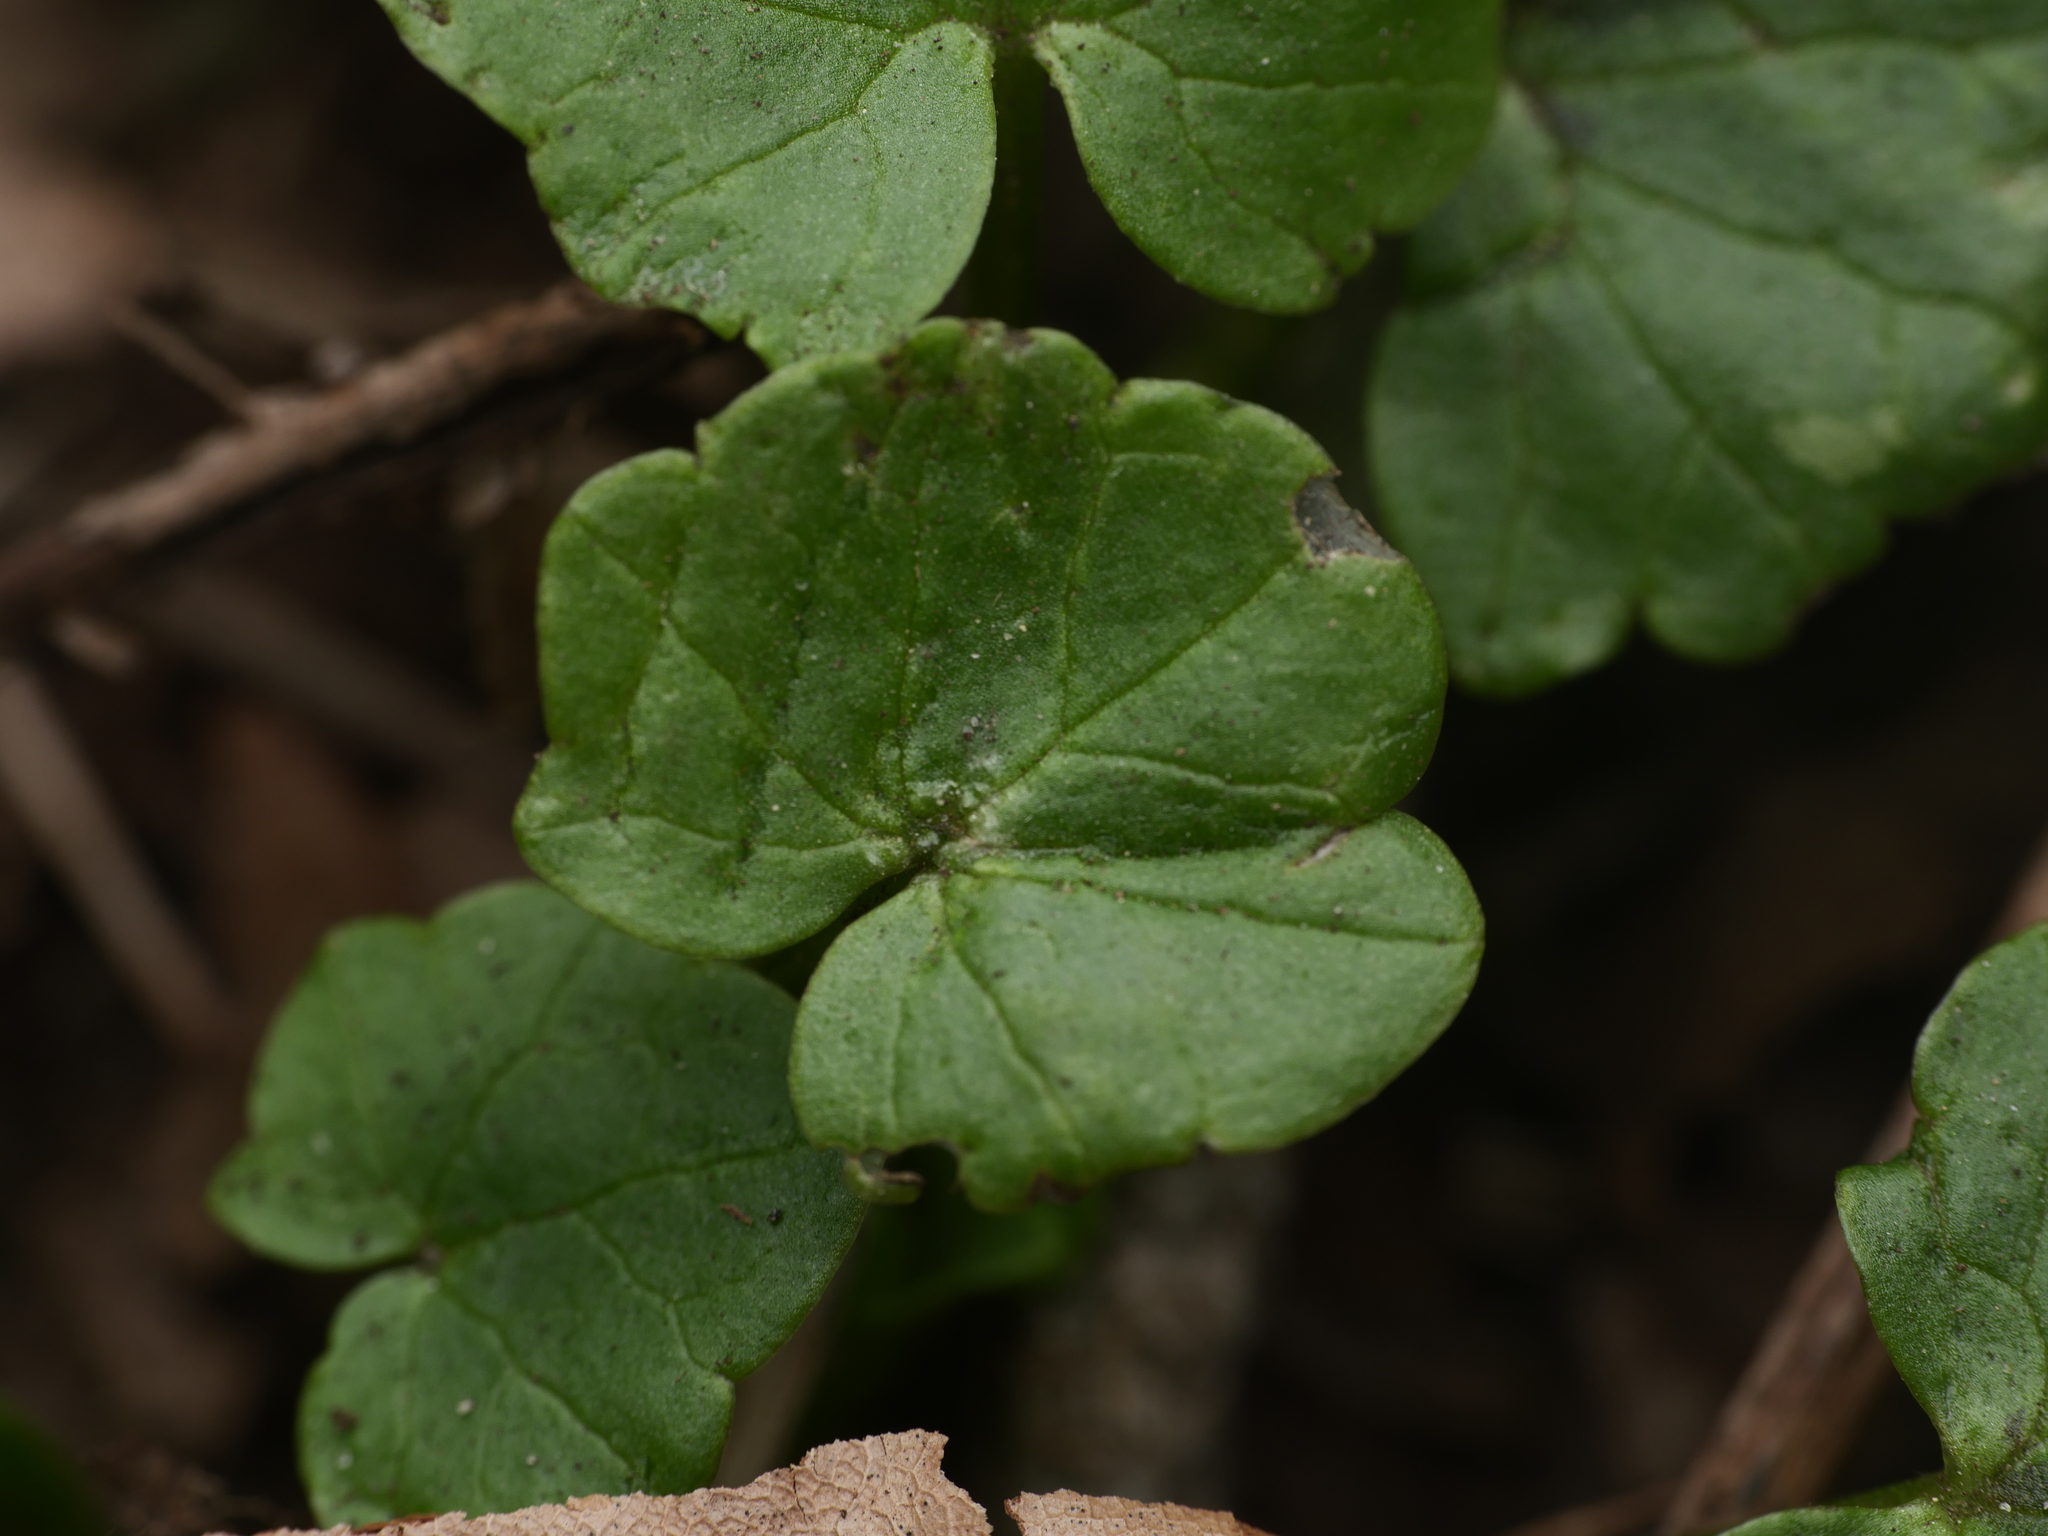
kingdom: Plantae
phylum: Tracheophyta
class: Magnoliopsida
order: Ranunculales
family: Ranunculaceae
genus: Ficaria
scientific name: Ficaria verna
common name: Lesser celandine
